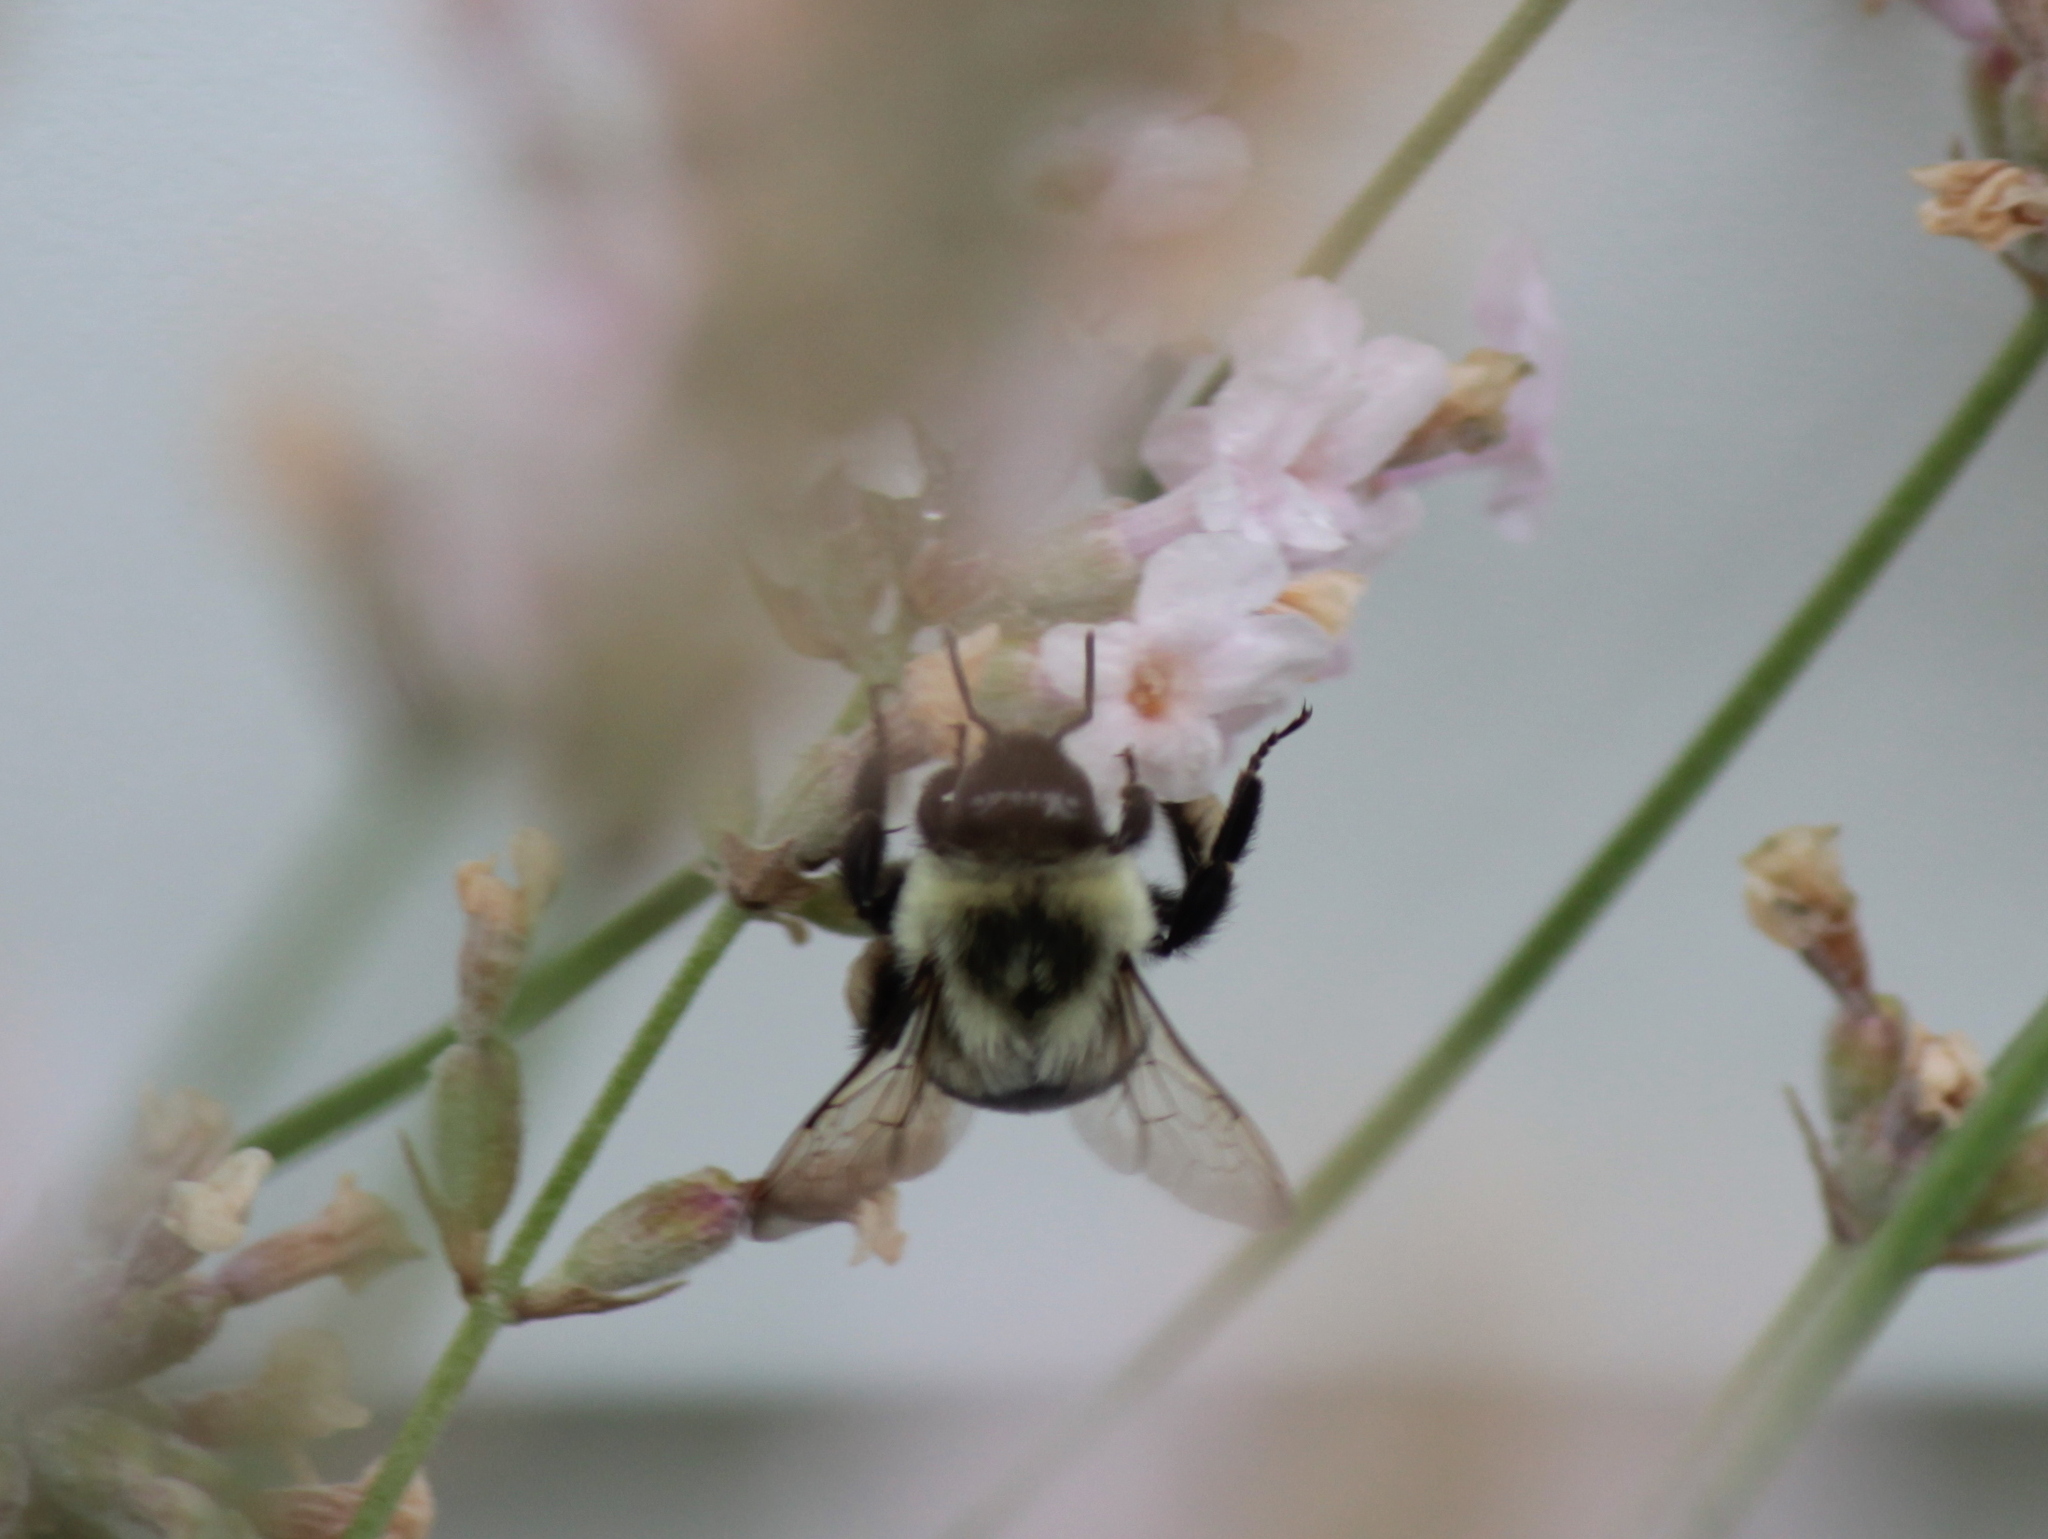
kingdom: Animalia
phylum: Arthropoda
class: Insecta
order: Hymenoptera
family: Apidae
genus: Bombus
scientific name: Bombus impatiens
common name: Common eastern bumble bee
